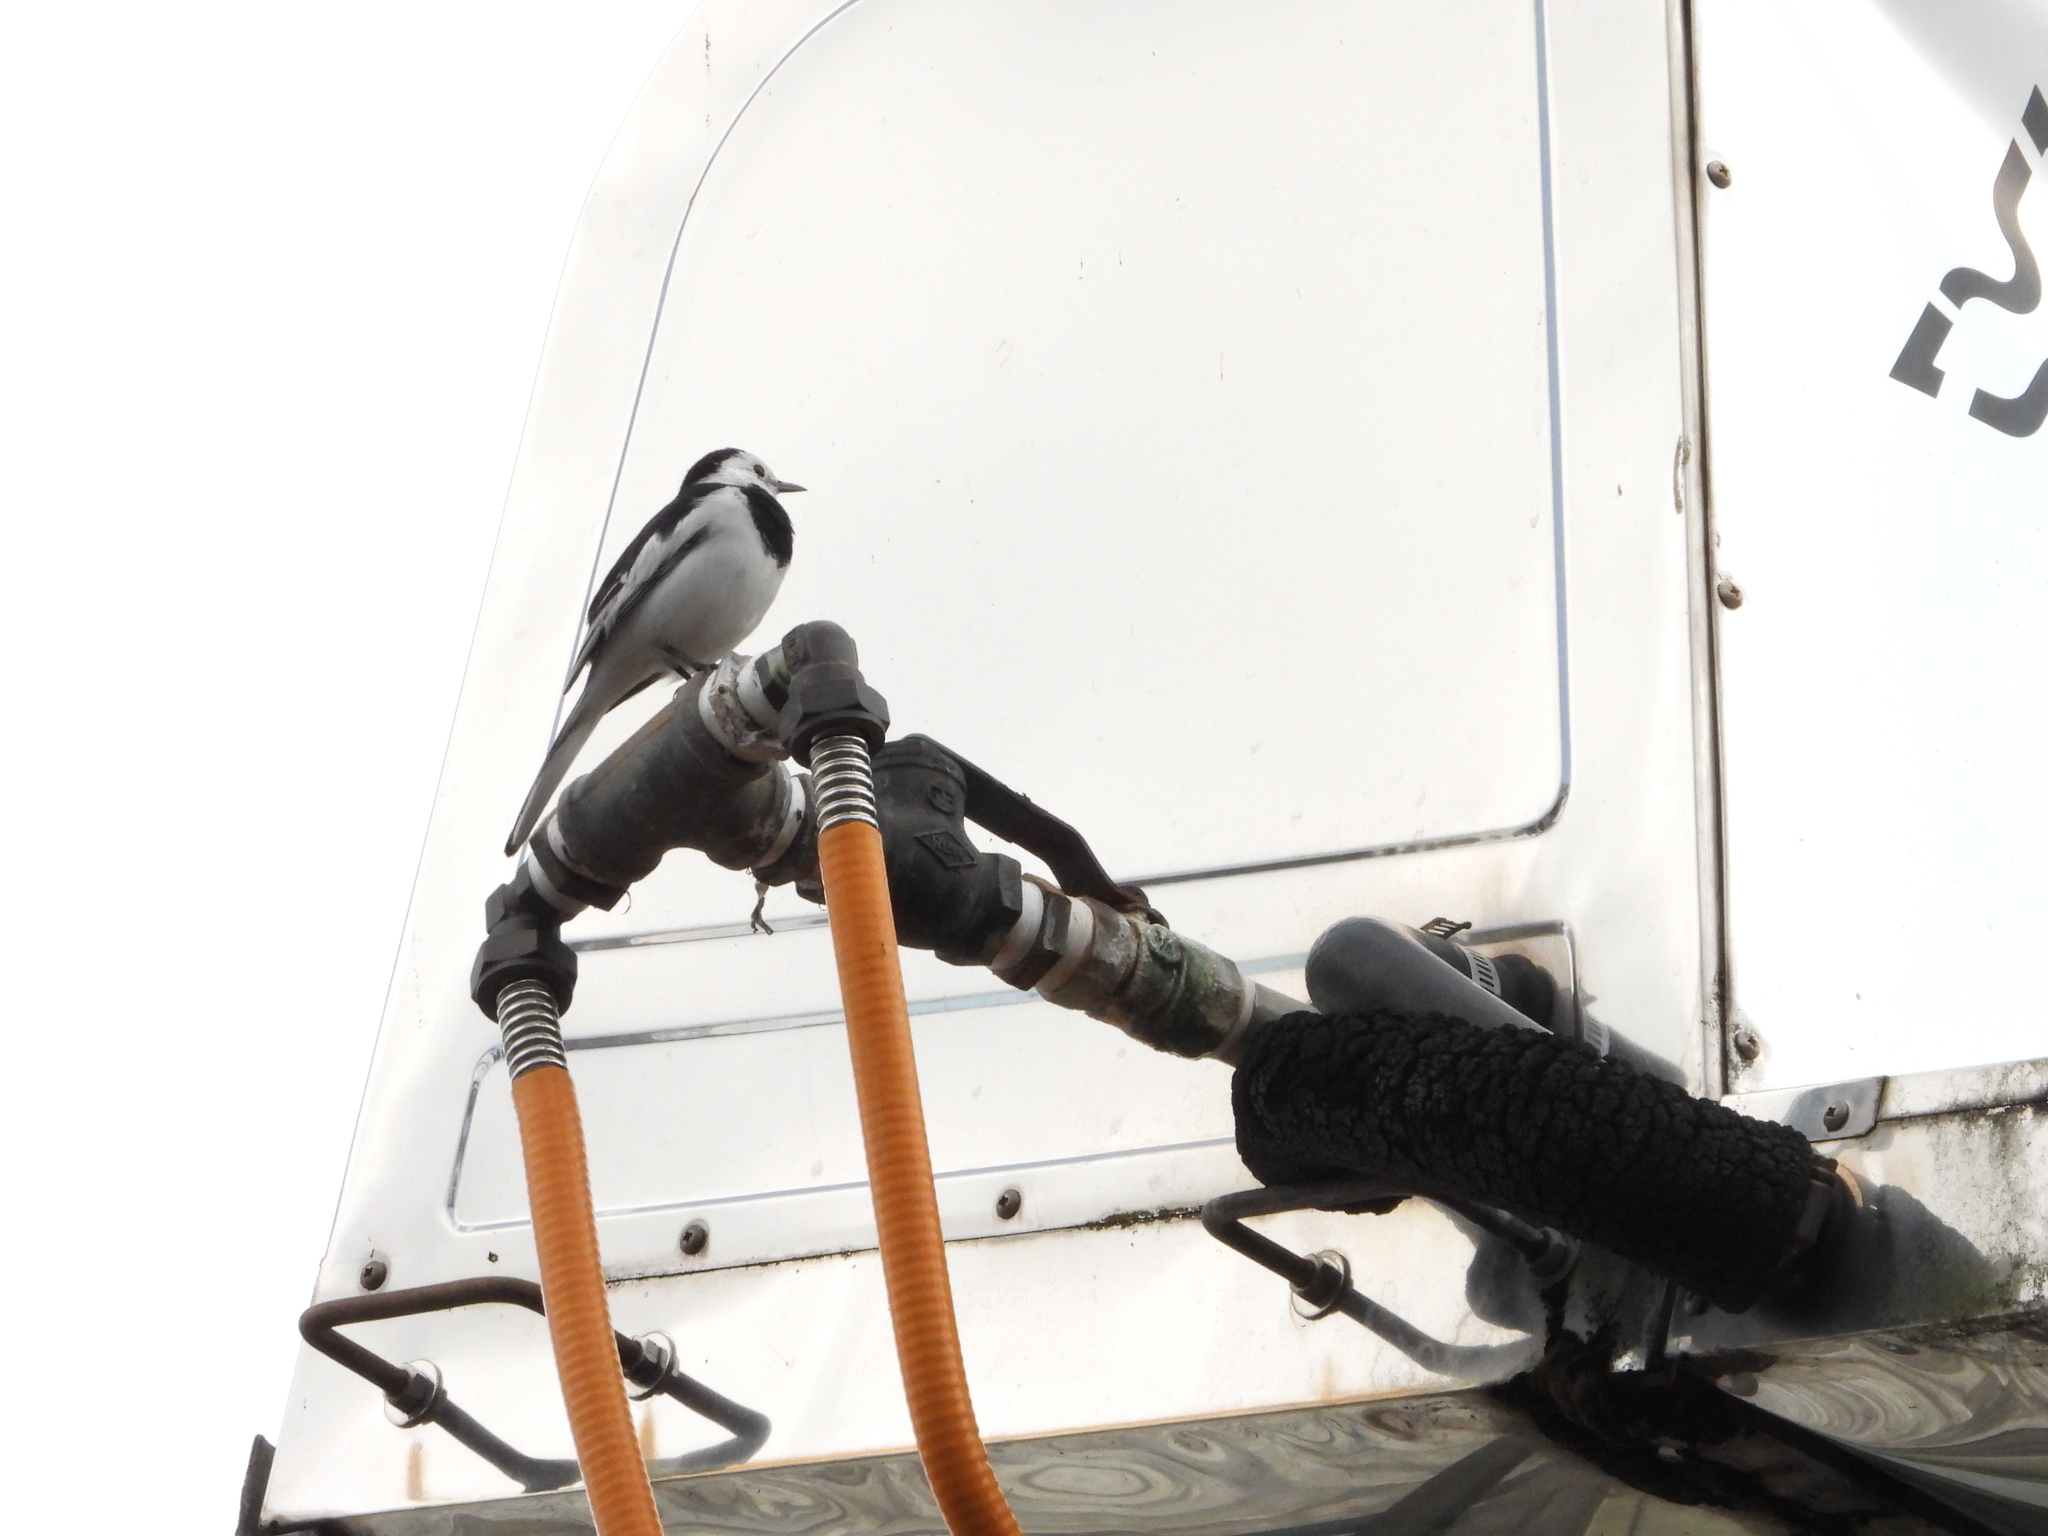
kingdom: Animalia
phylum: Chordata
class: Aves
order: Passeriformes
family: Motacillidae
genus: Motacilla
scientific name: Motacilla alba
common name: White wagtail
